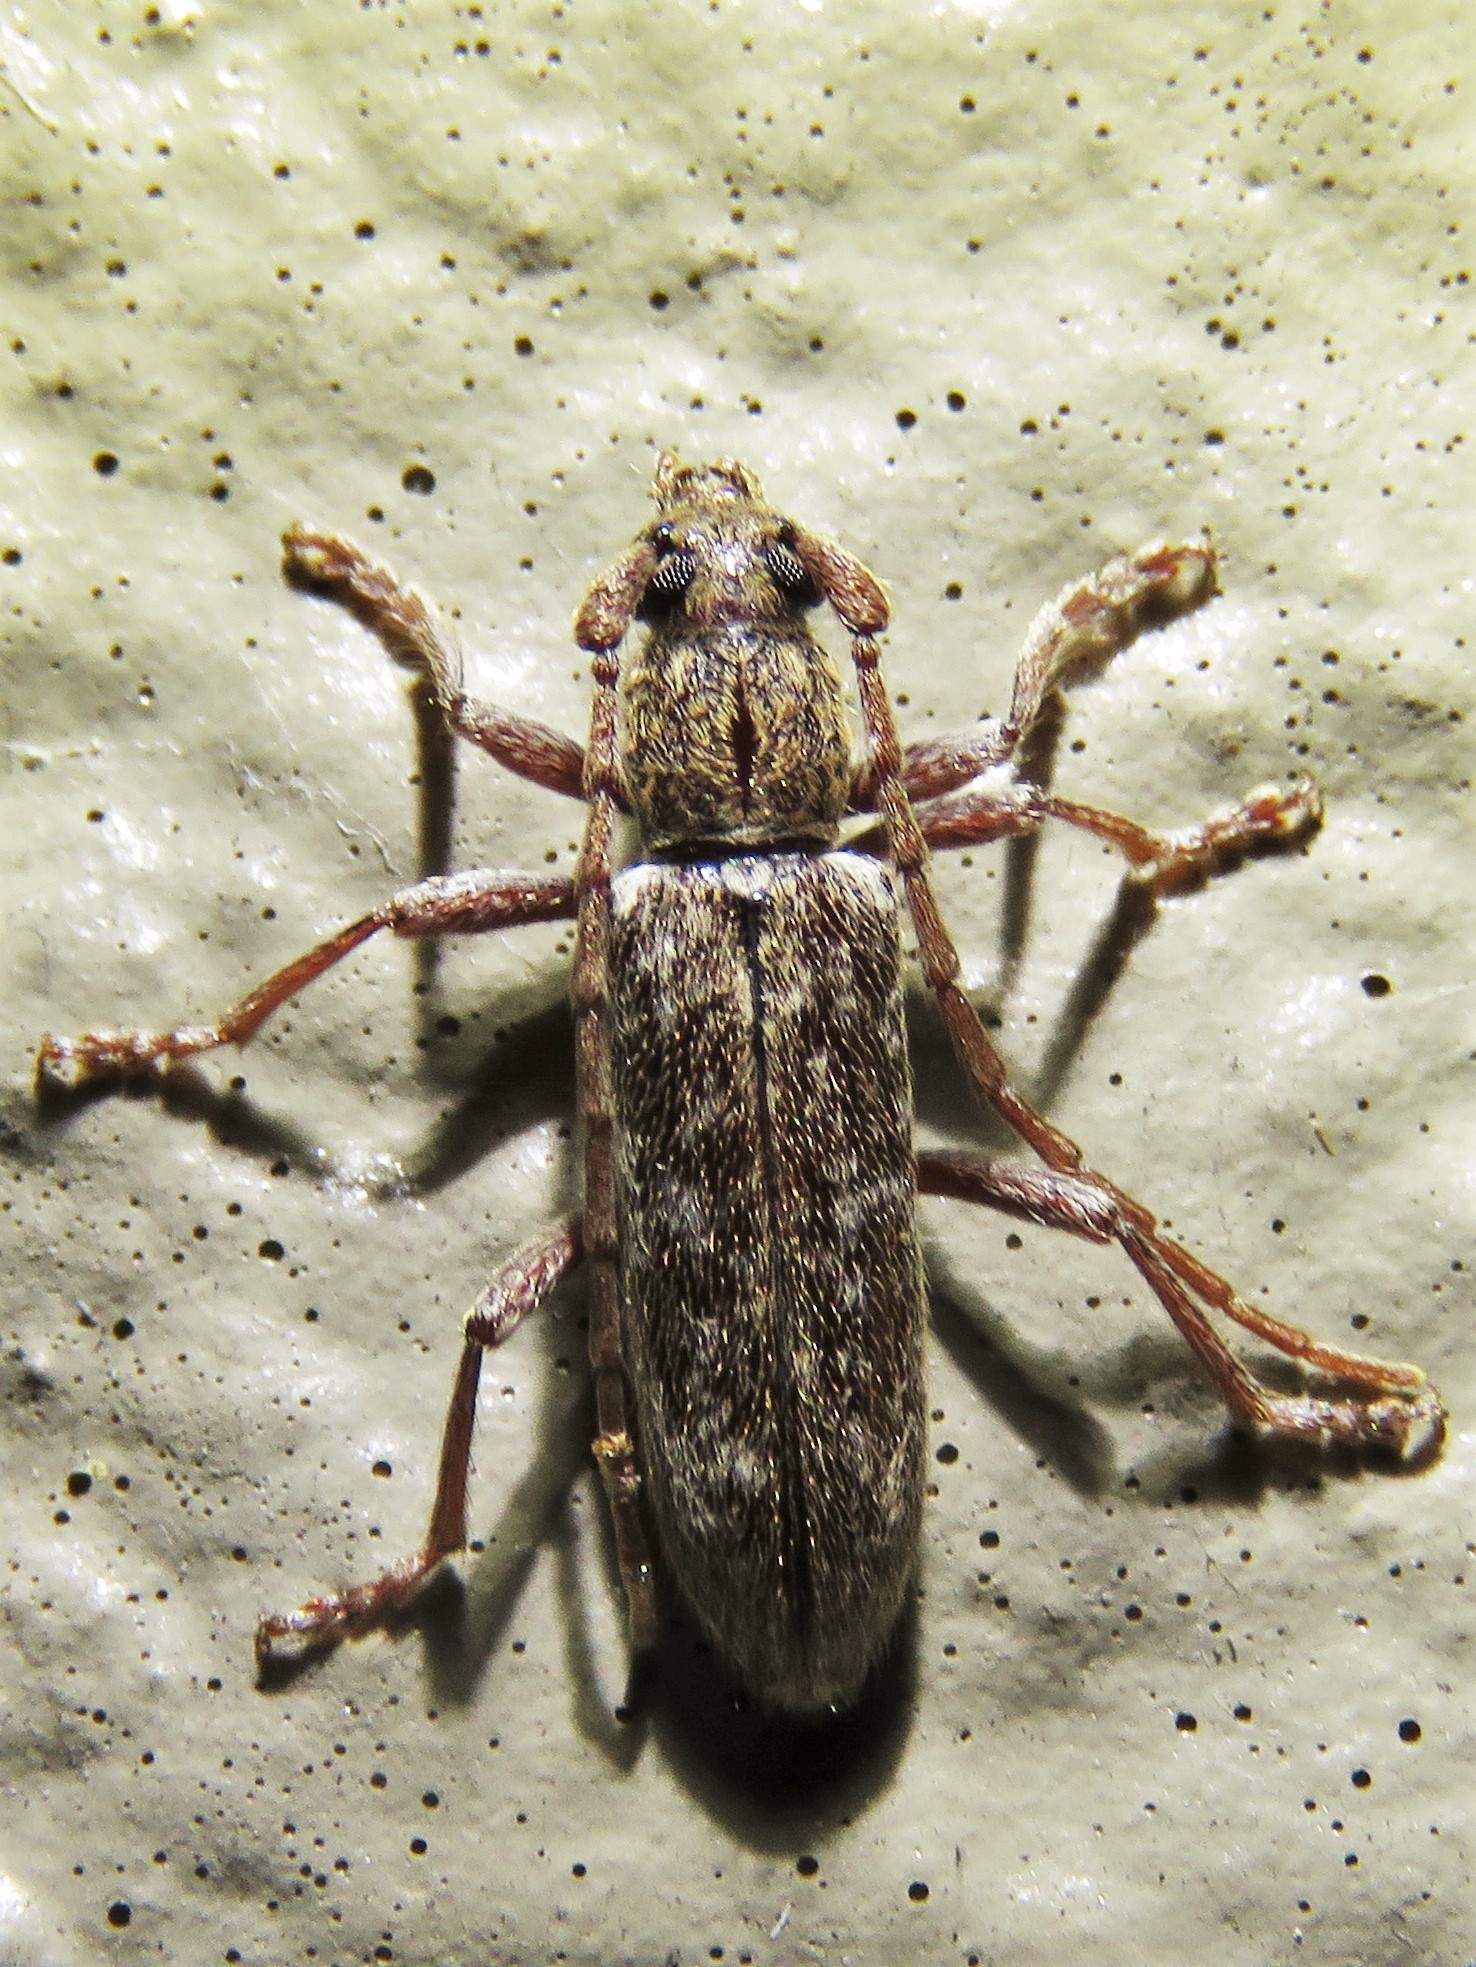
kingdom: Animalia
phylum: Arthropoda
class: Insecta
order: Coleoptera
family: Cerambycidae
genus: Anelaphus
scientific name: Anelaphus pumilus
